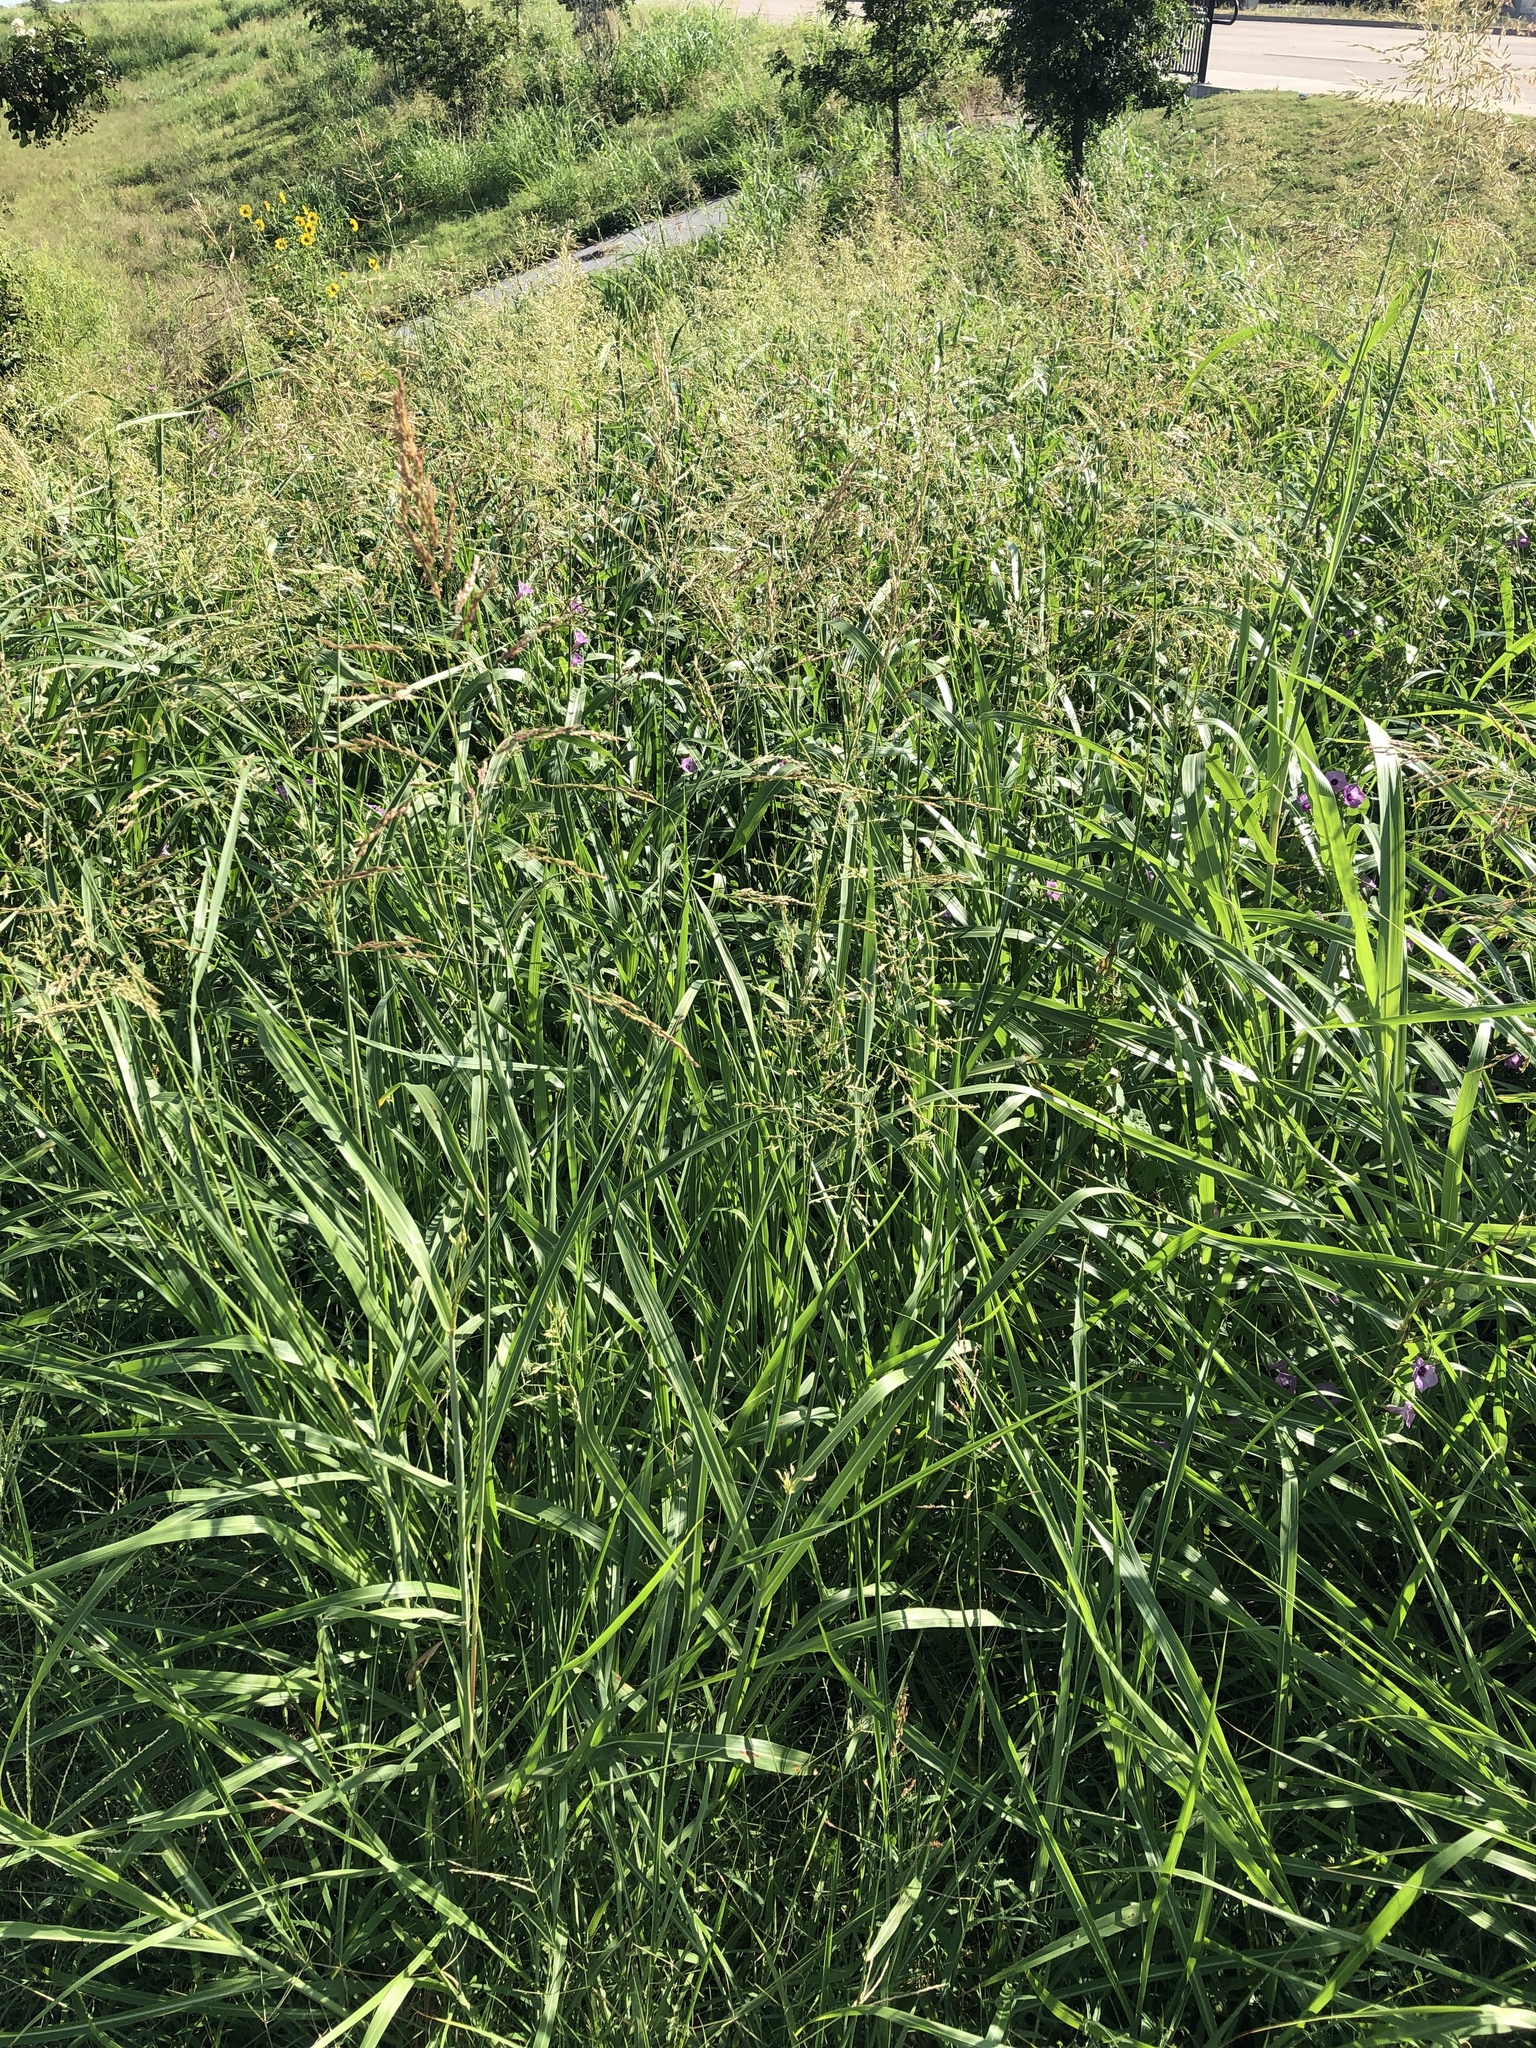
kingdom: Plantae
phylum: Tracheophyta
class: Liliopsida
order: Poales
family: Poaceae
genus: Sorghum
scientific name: Sorghum halepense
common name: Johnson-grass
